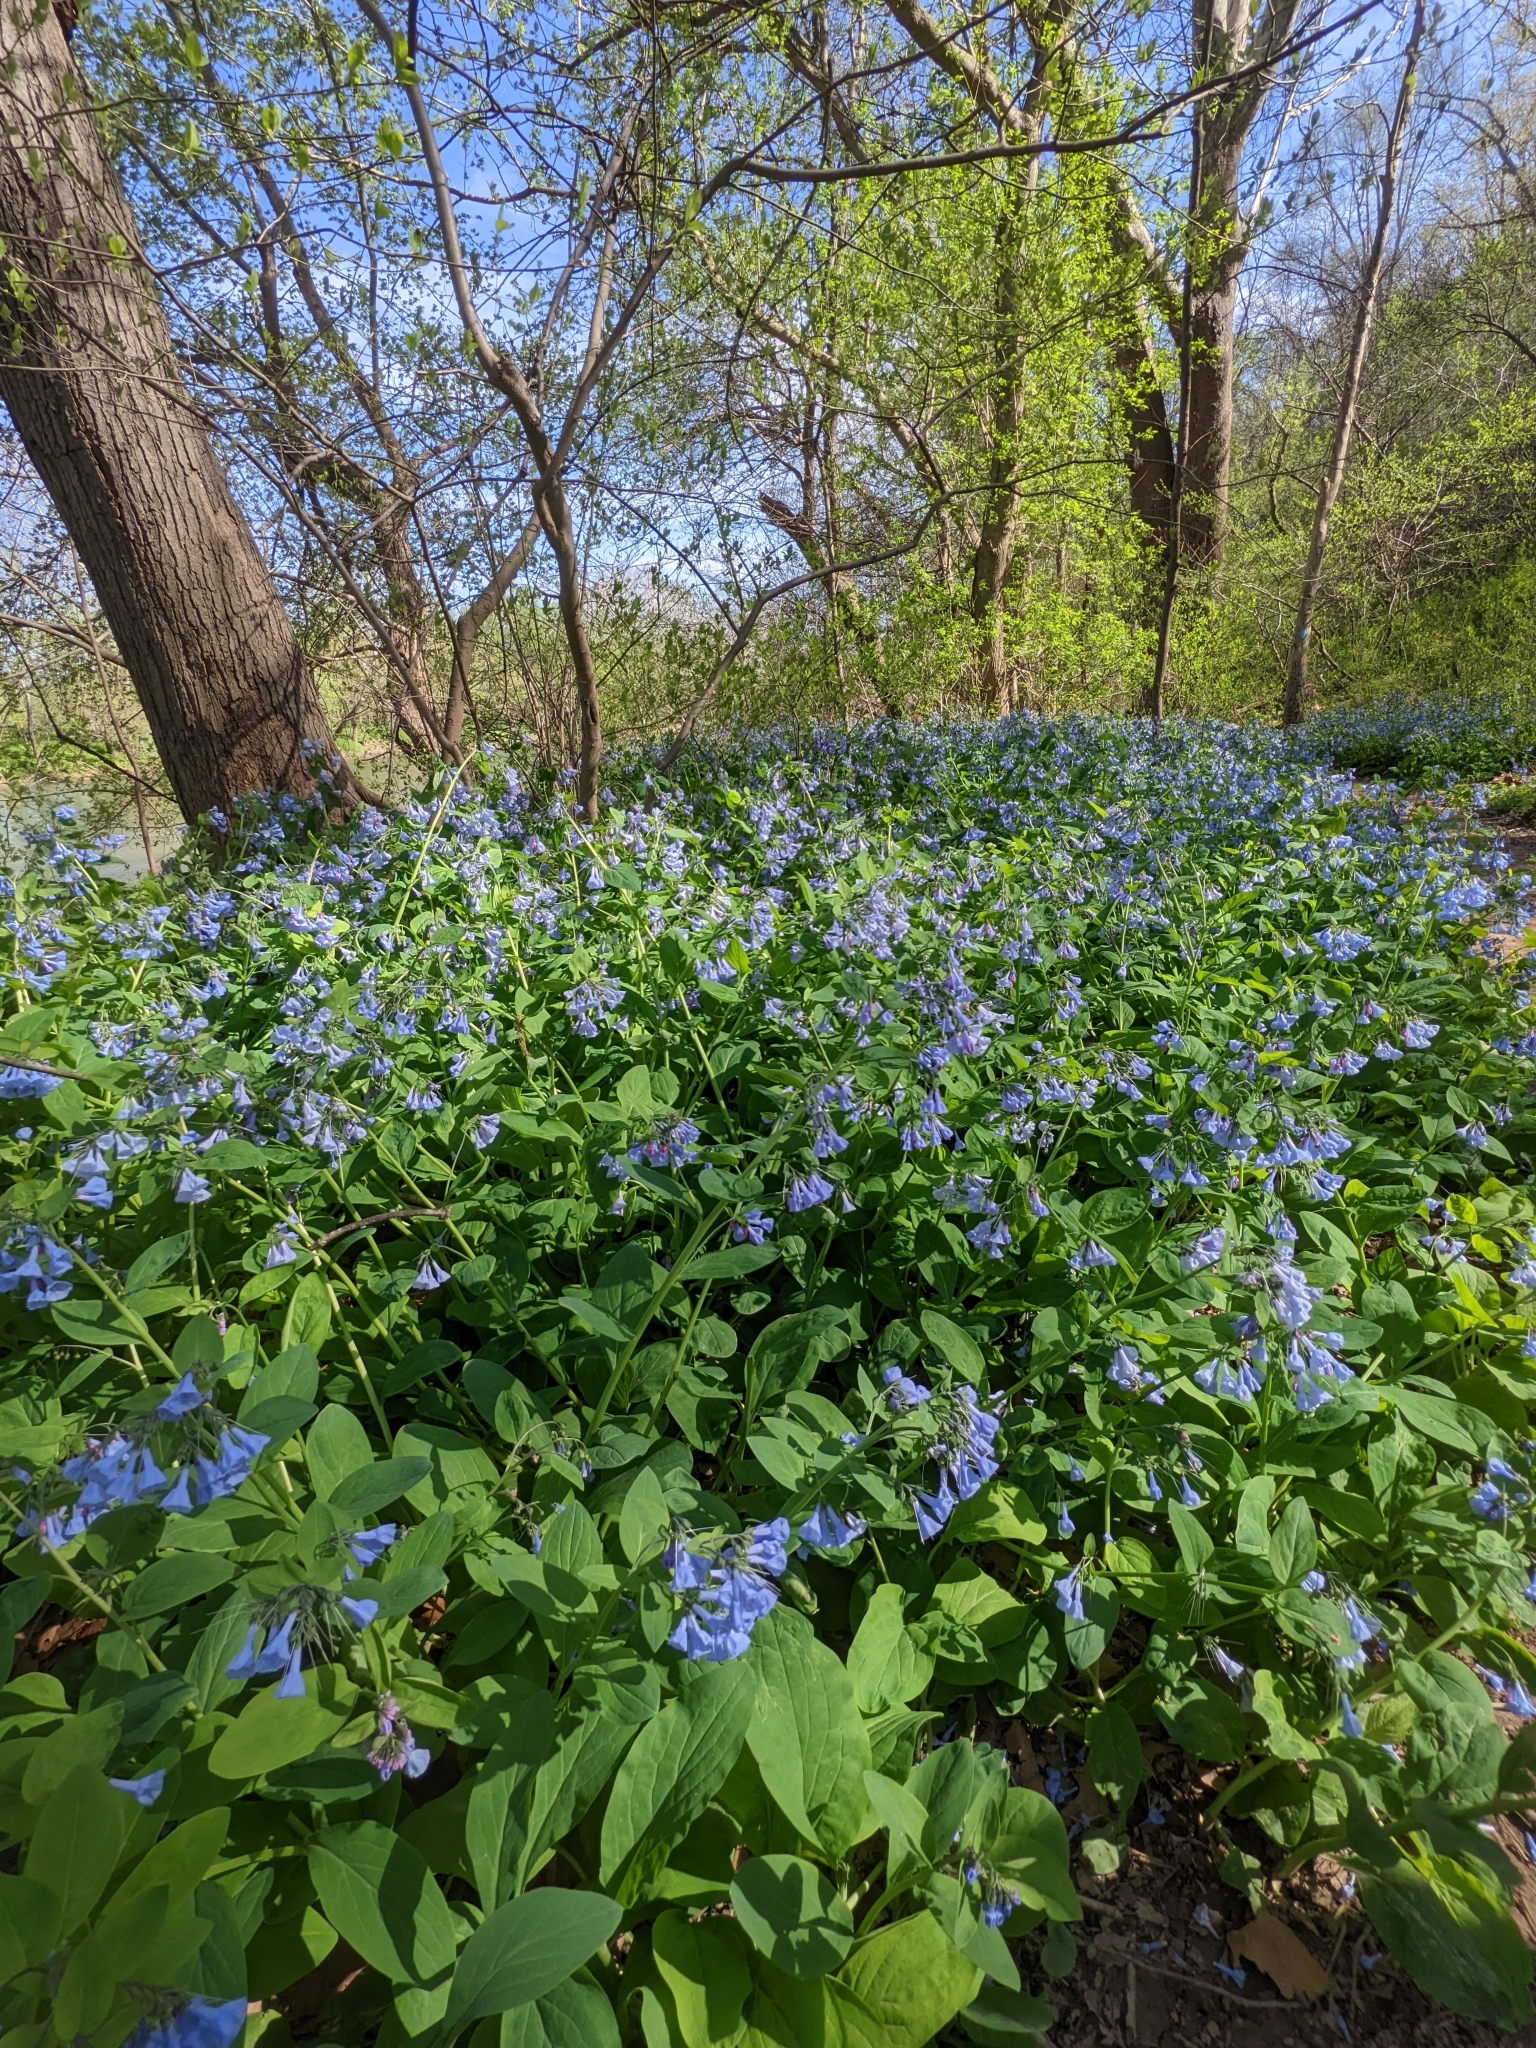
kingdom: Plantae
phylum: Tracheophyta
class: Magnoliopsida
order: Boraginales
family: Boraginaceae
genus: Mertensia
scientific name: Mertensia virginica
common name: Virginia bluebells
